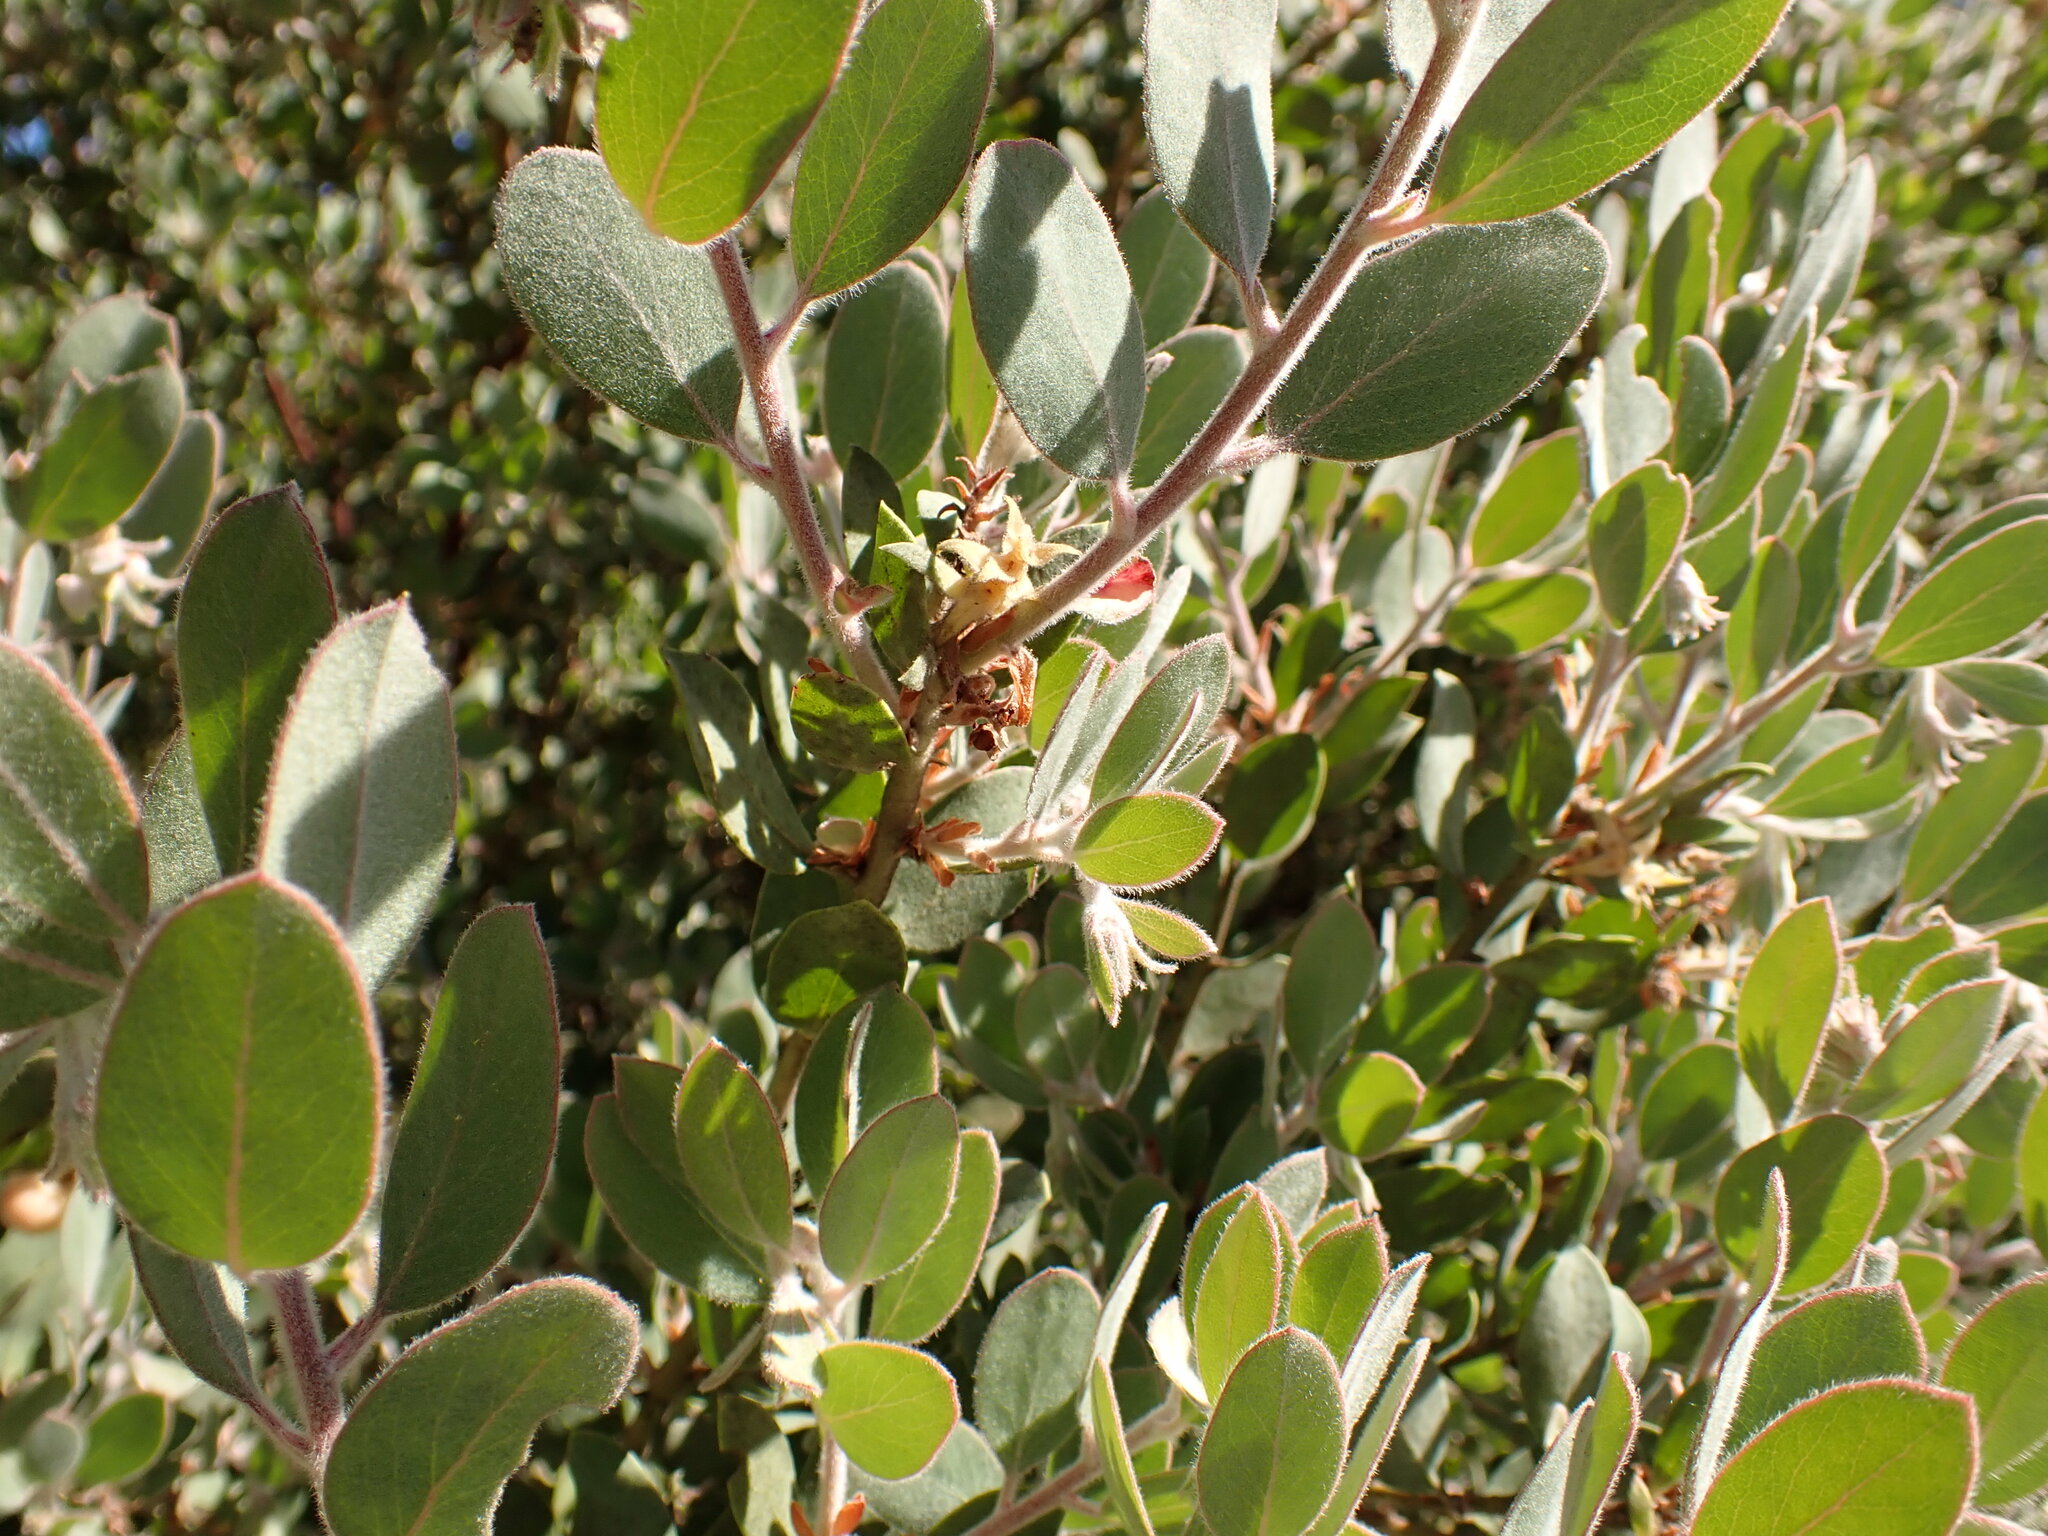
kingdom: Plantae
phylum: Tracheophyta
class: Magnoliopsida
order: Ericales
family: Ericaceae
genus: Arctostaphylos
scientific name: Arctostaphylos silvicola
